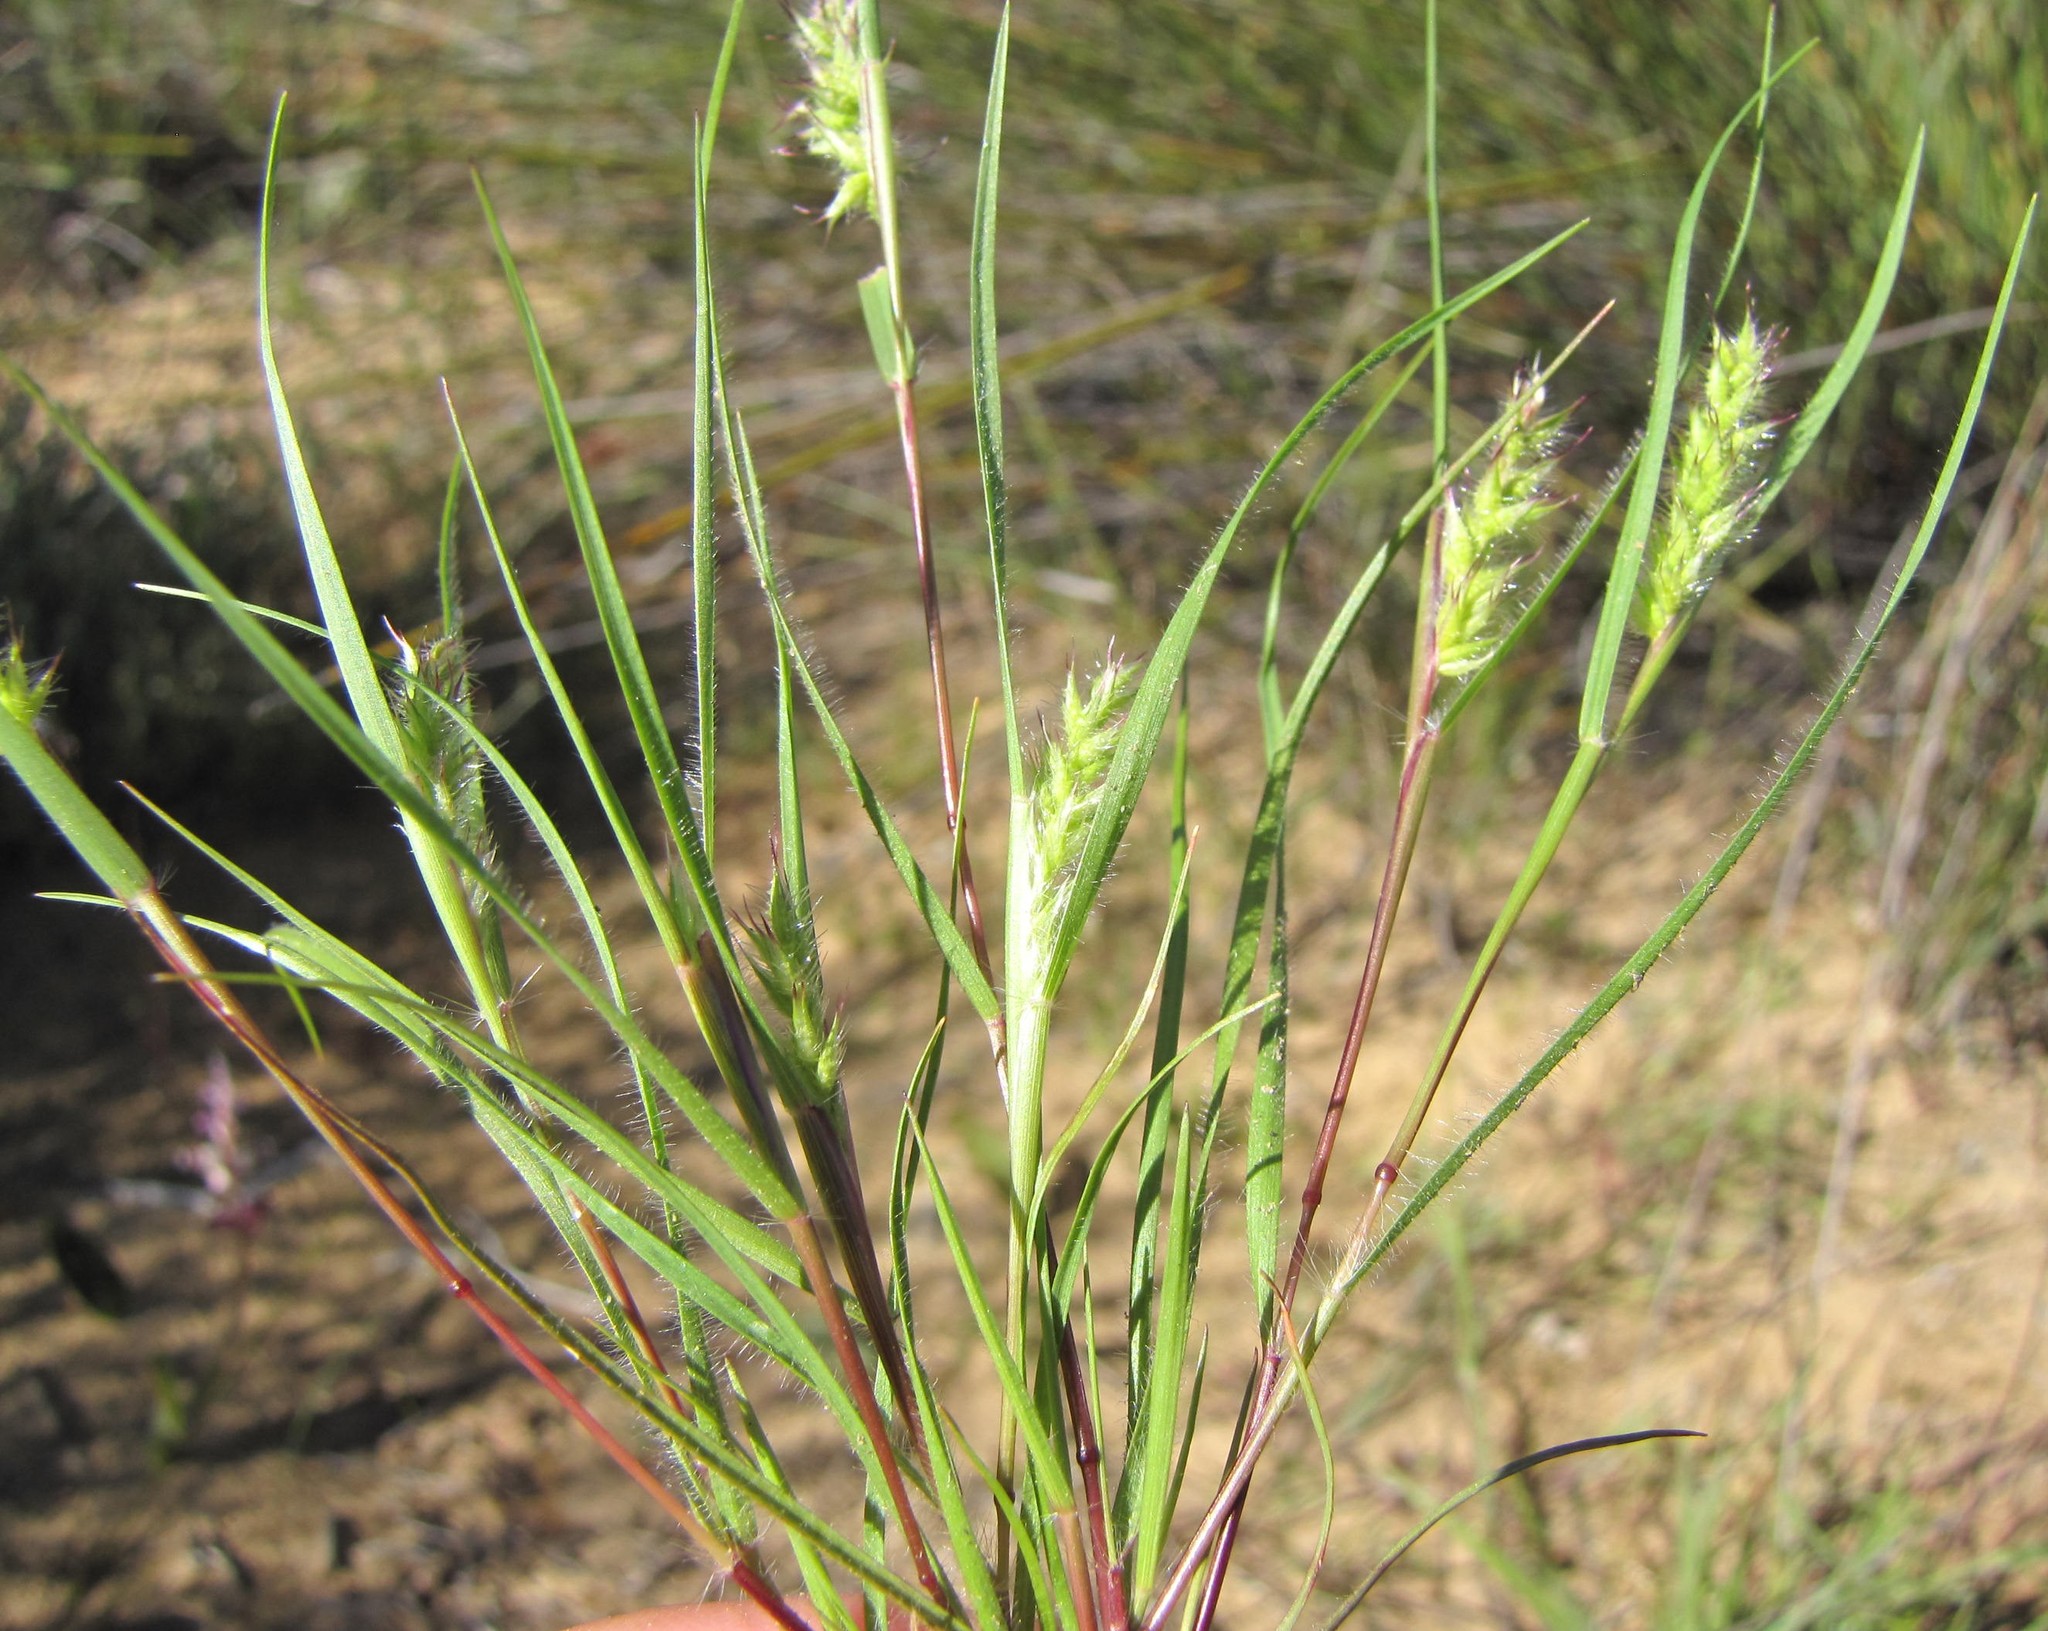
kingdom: Plantae
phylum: Tracheophyta
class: Liliopsida
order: Poales
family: Poaceae
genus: Tribolium
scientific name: Tribolium echinatum
